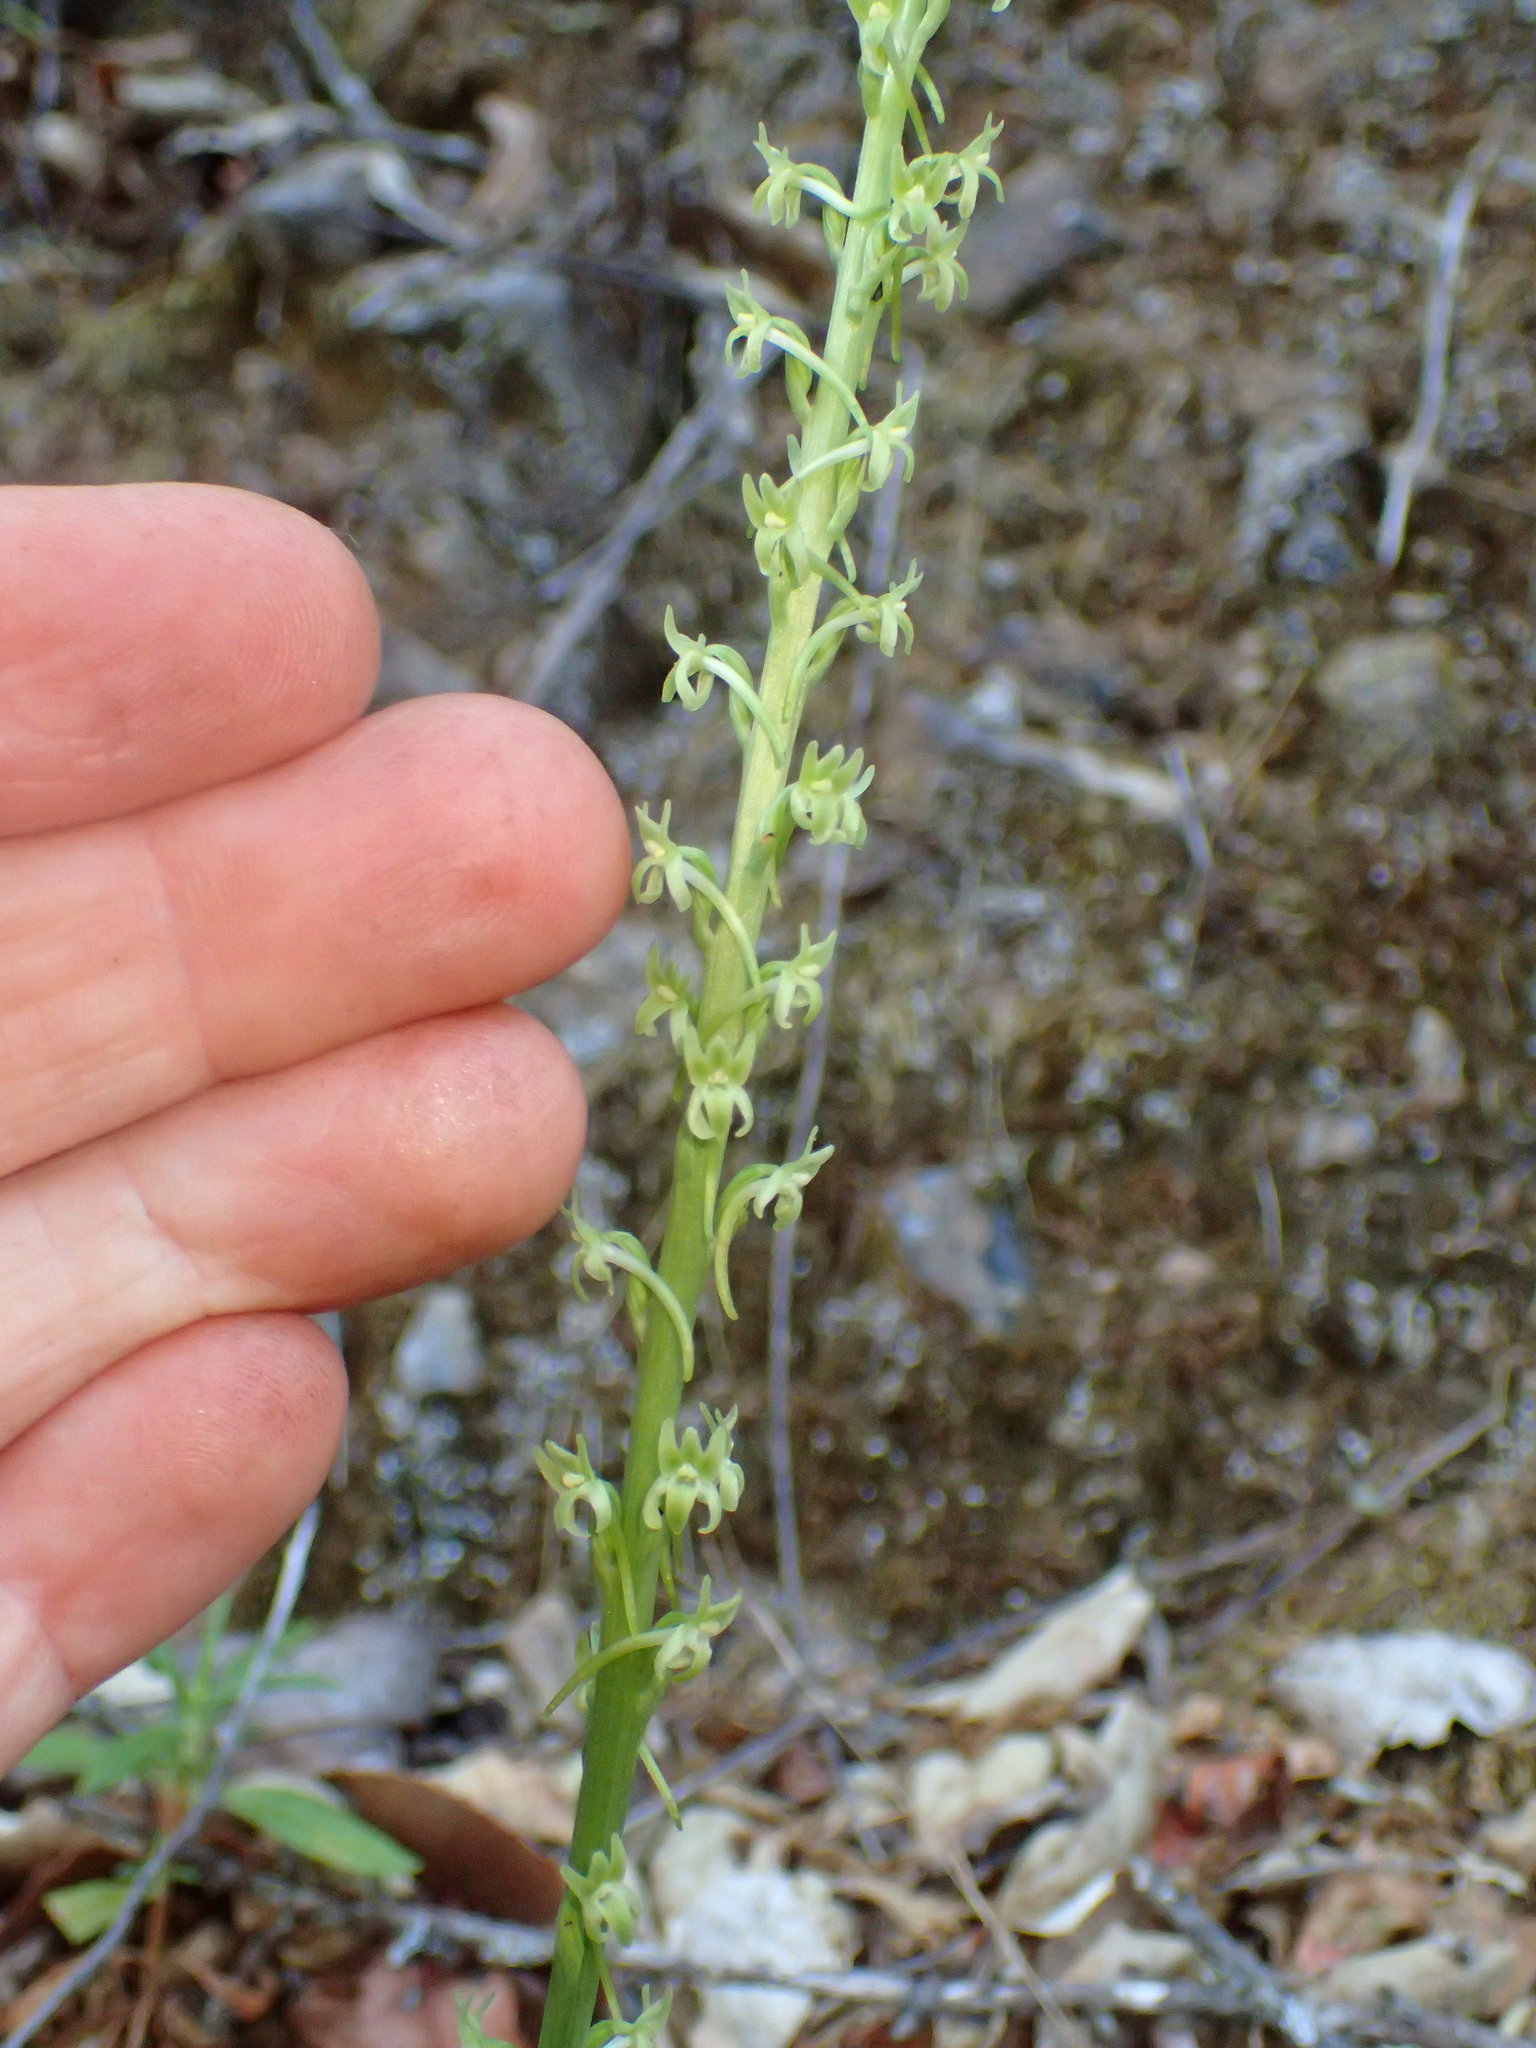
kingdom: Plantae
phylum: Tracheophyta
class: Liliopsida
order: Asparagales
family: Orchidaceae
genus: Platanthera
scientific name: Platanthera elongata
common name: Dense-flowered rein orchid
